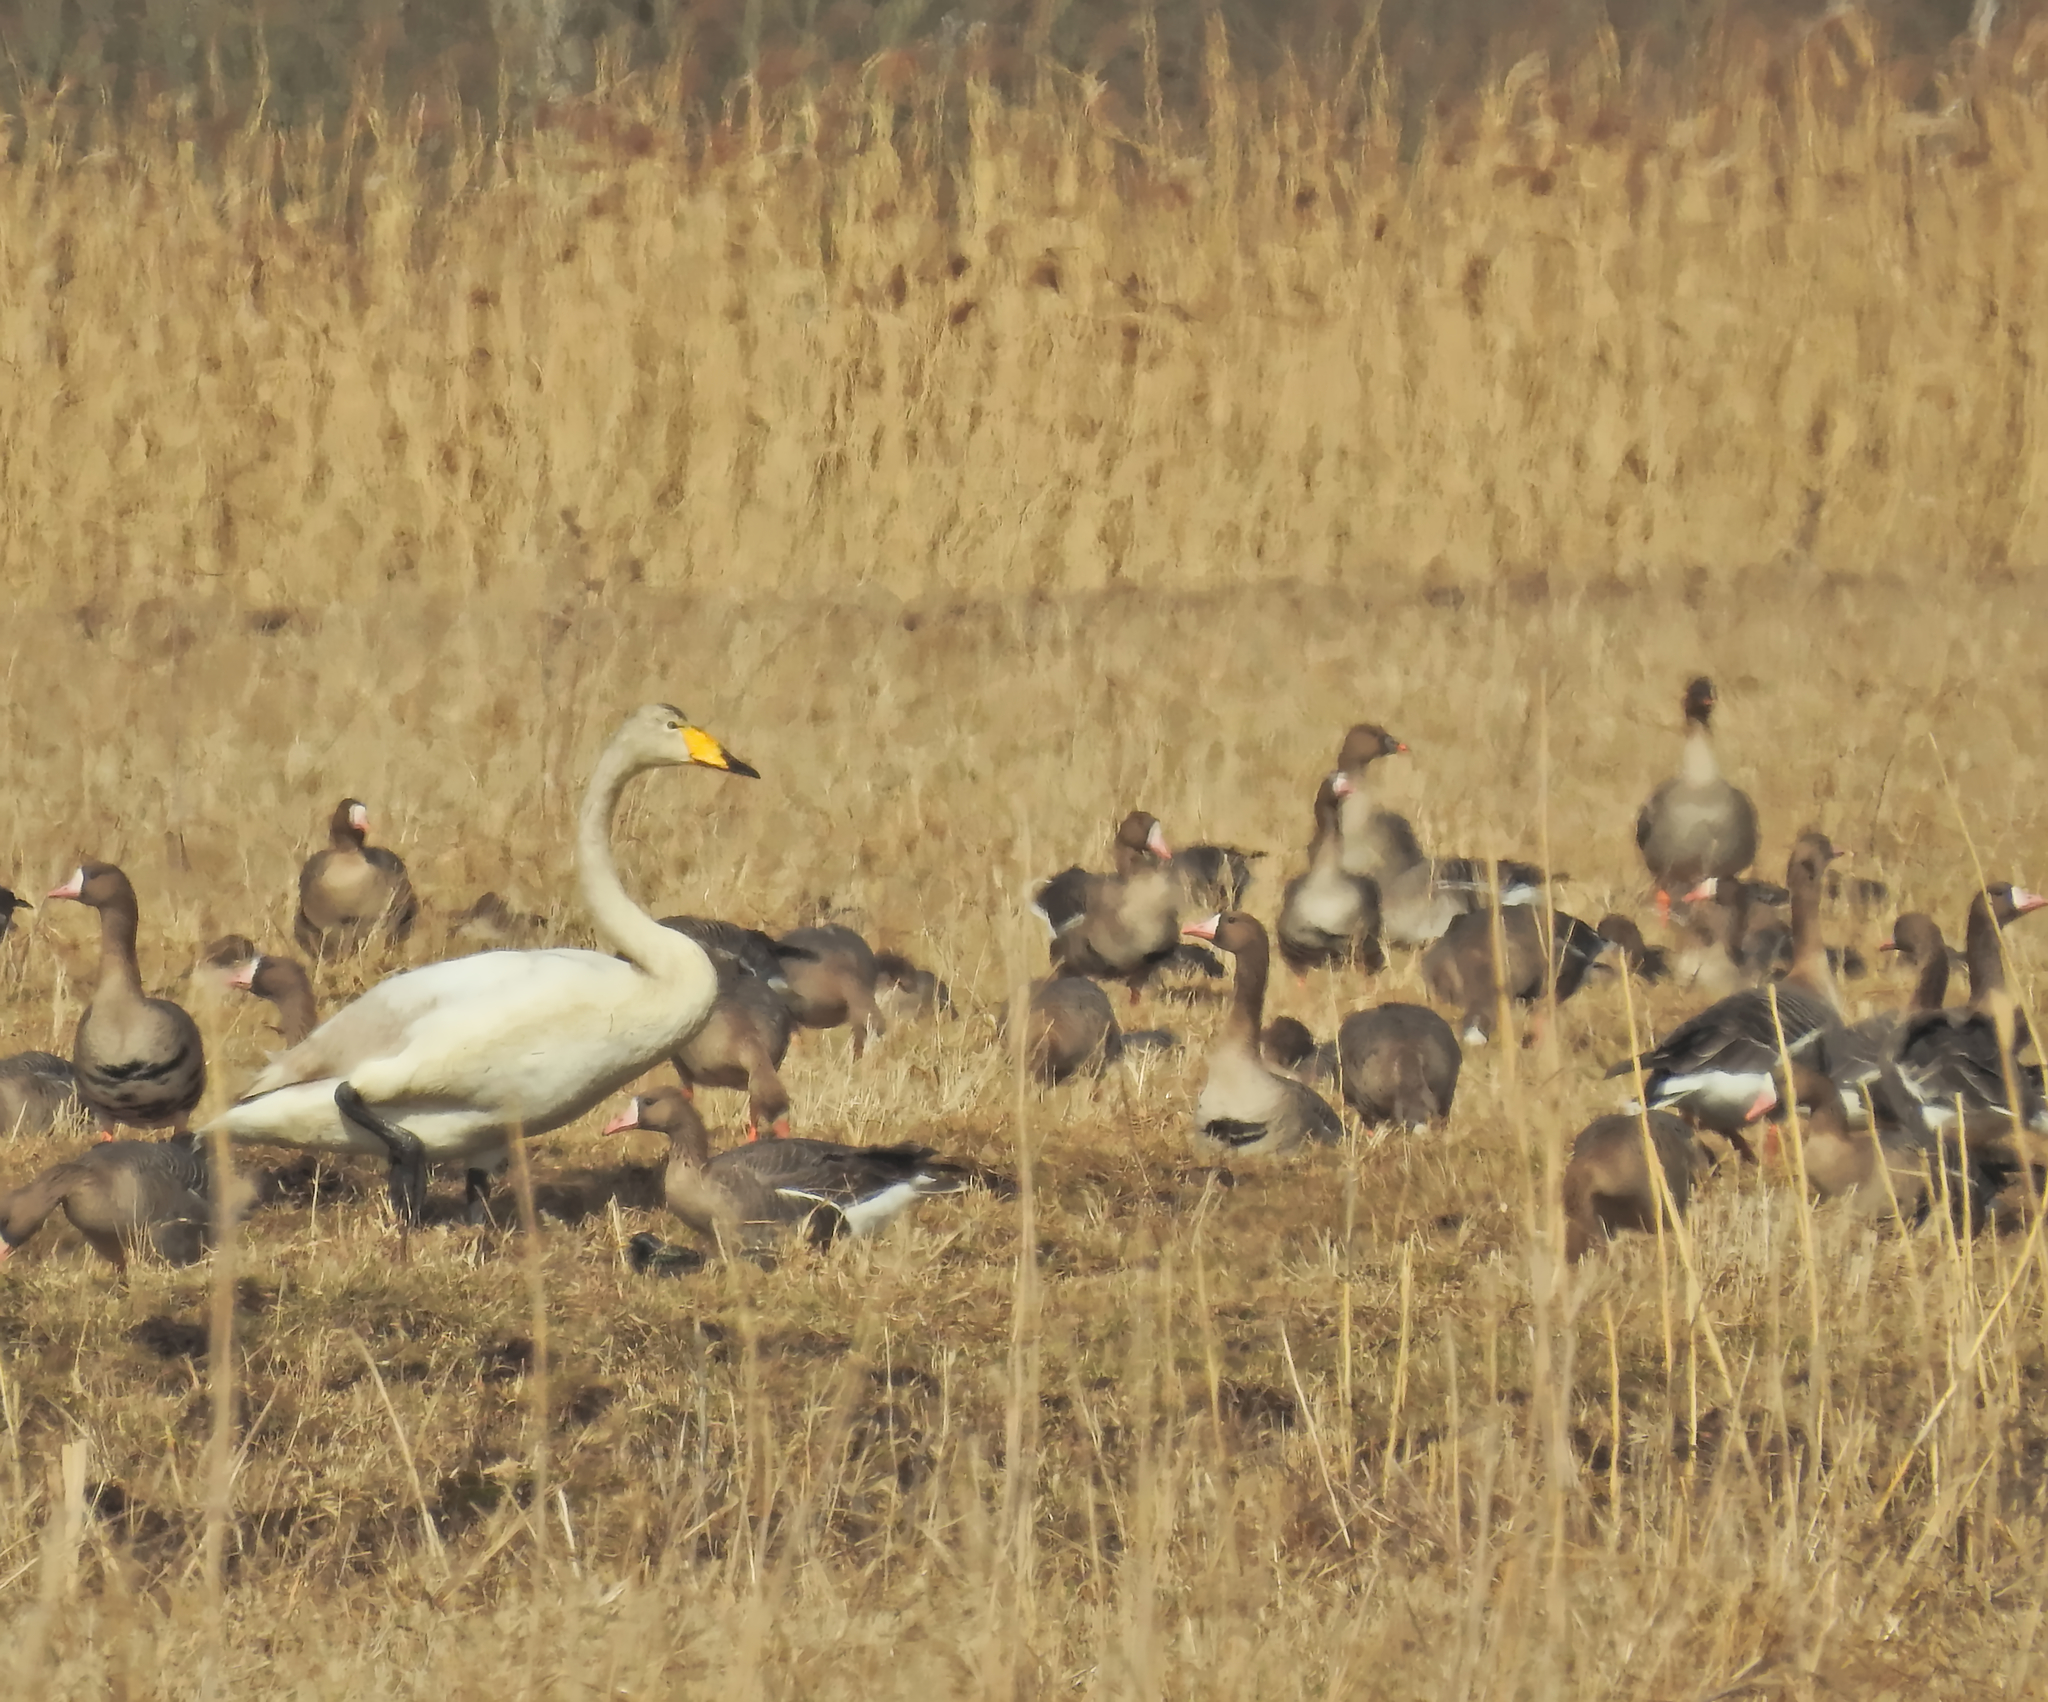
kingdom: Animalia
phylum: Chordata
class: Aves
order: Anseriformes
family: Anatidae
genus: Anser
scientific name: Anser serrirostris
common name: Tundra bean goose
